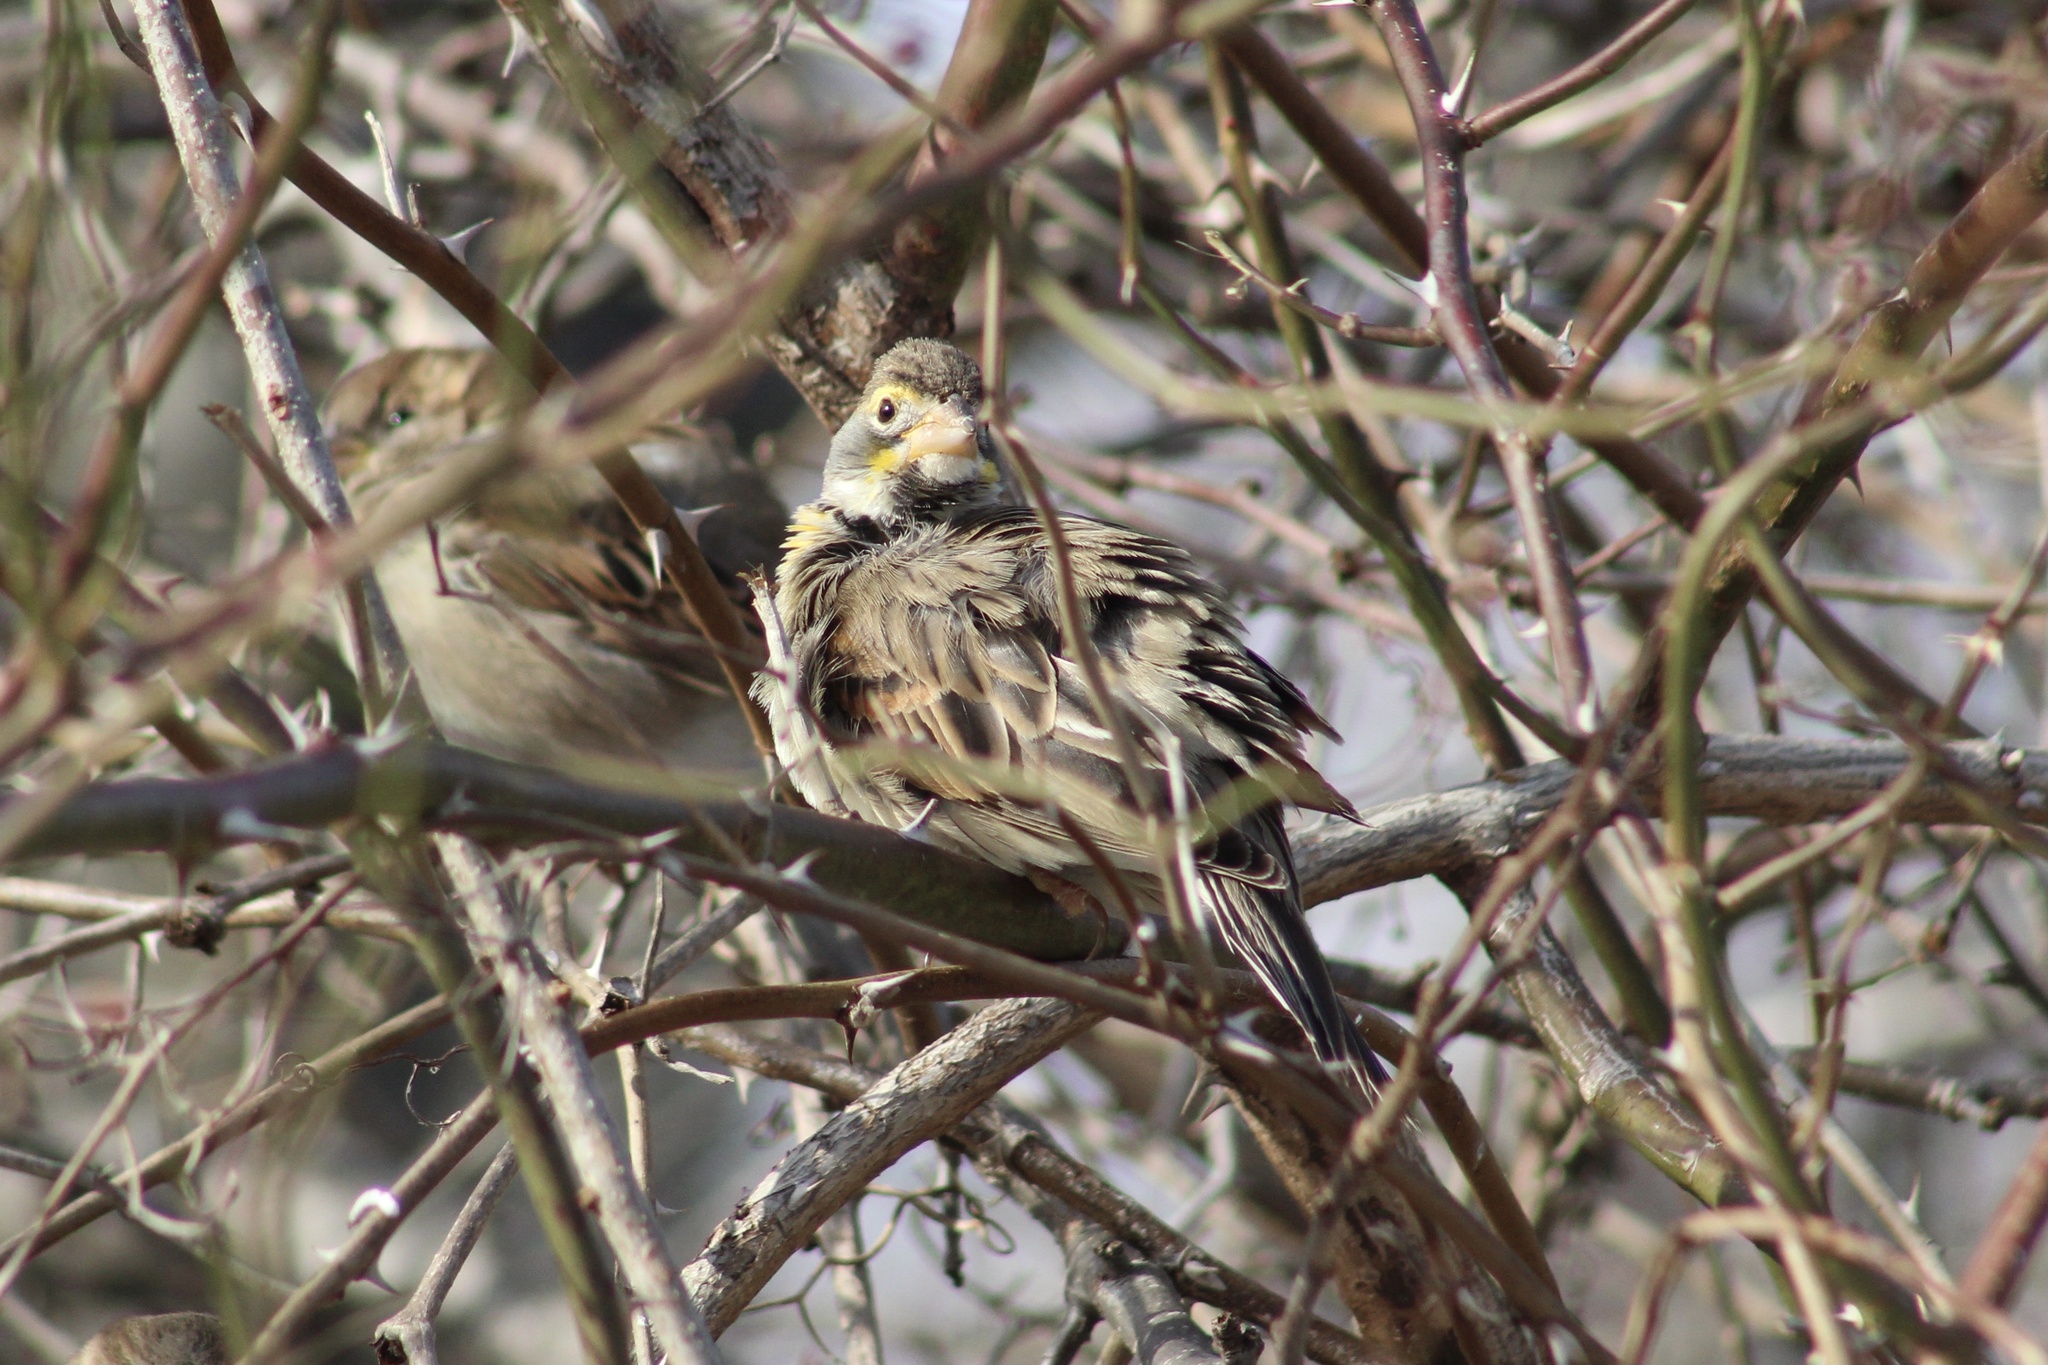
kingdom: Animalia
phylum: Chordata
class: Aves
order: Passeriformes
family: Cardinalidae
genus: Spiza
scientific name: Spiza americana
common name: Dickcissel
